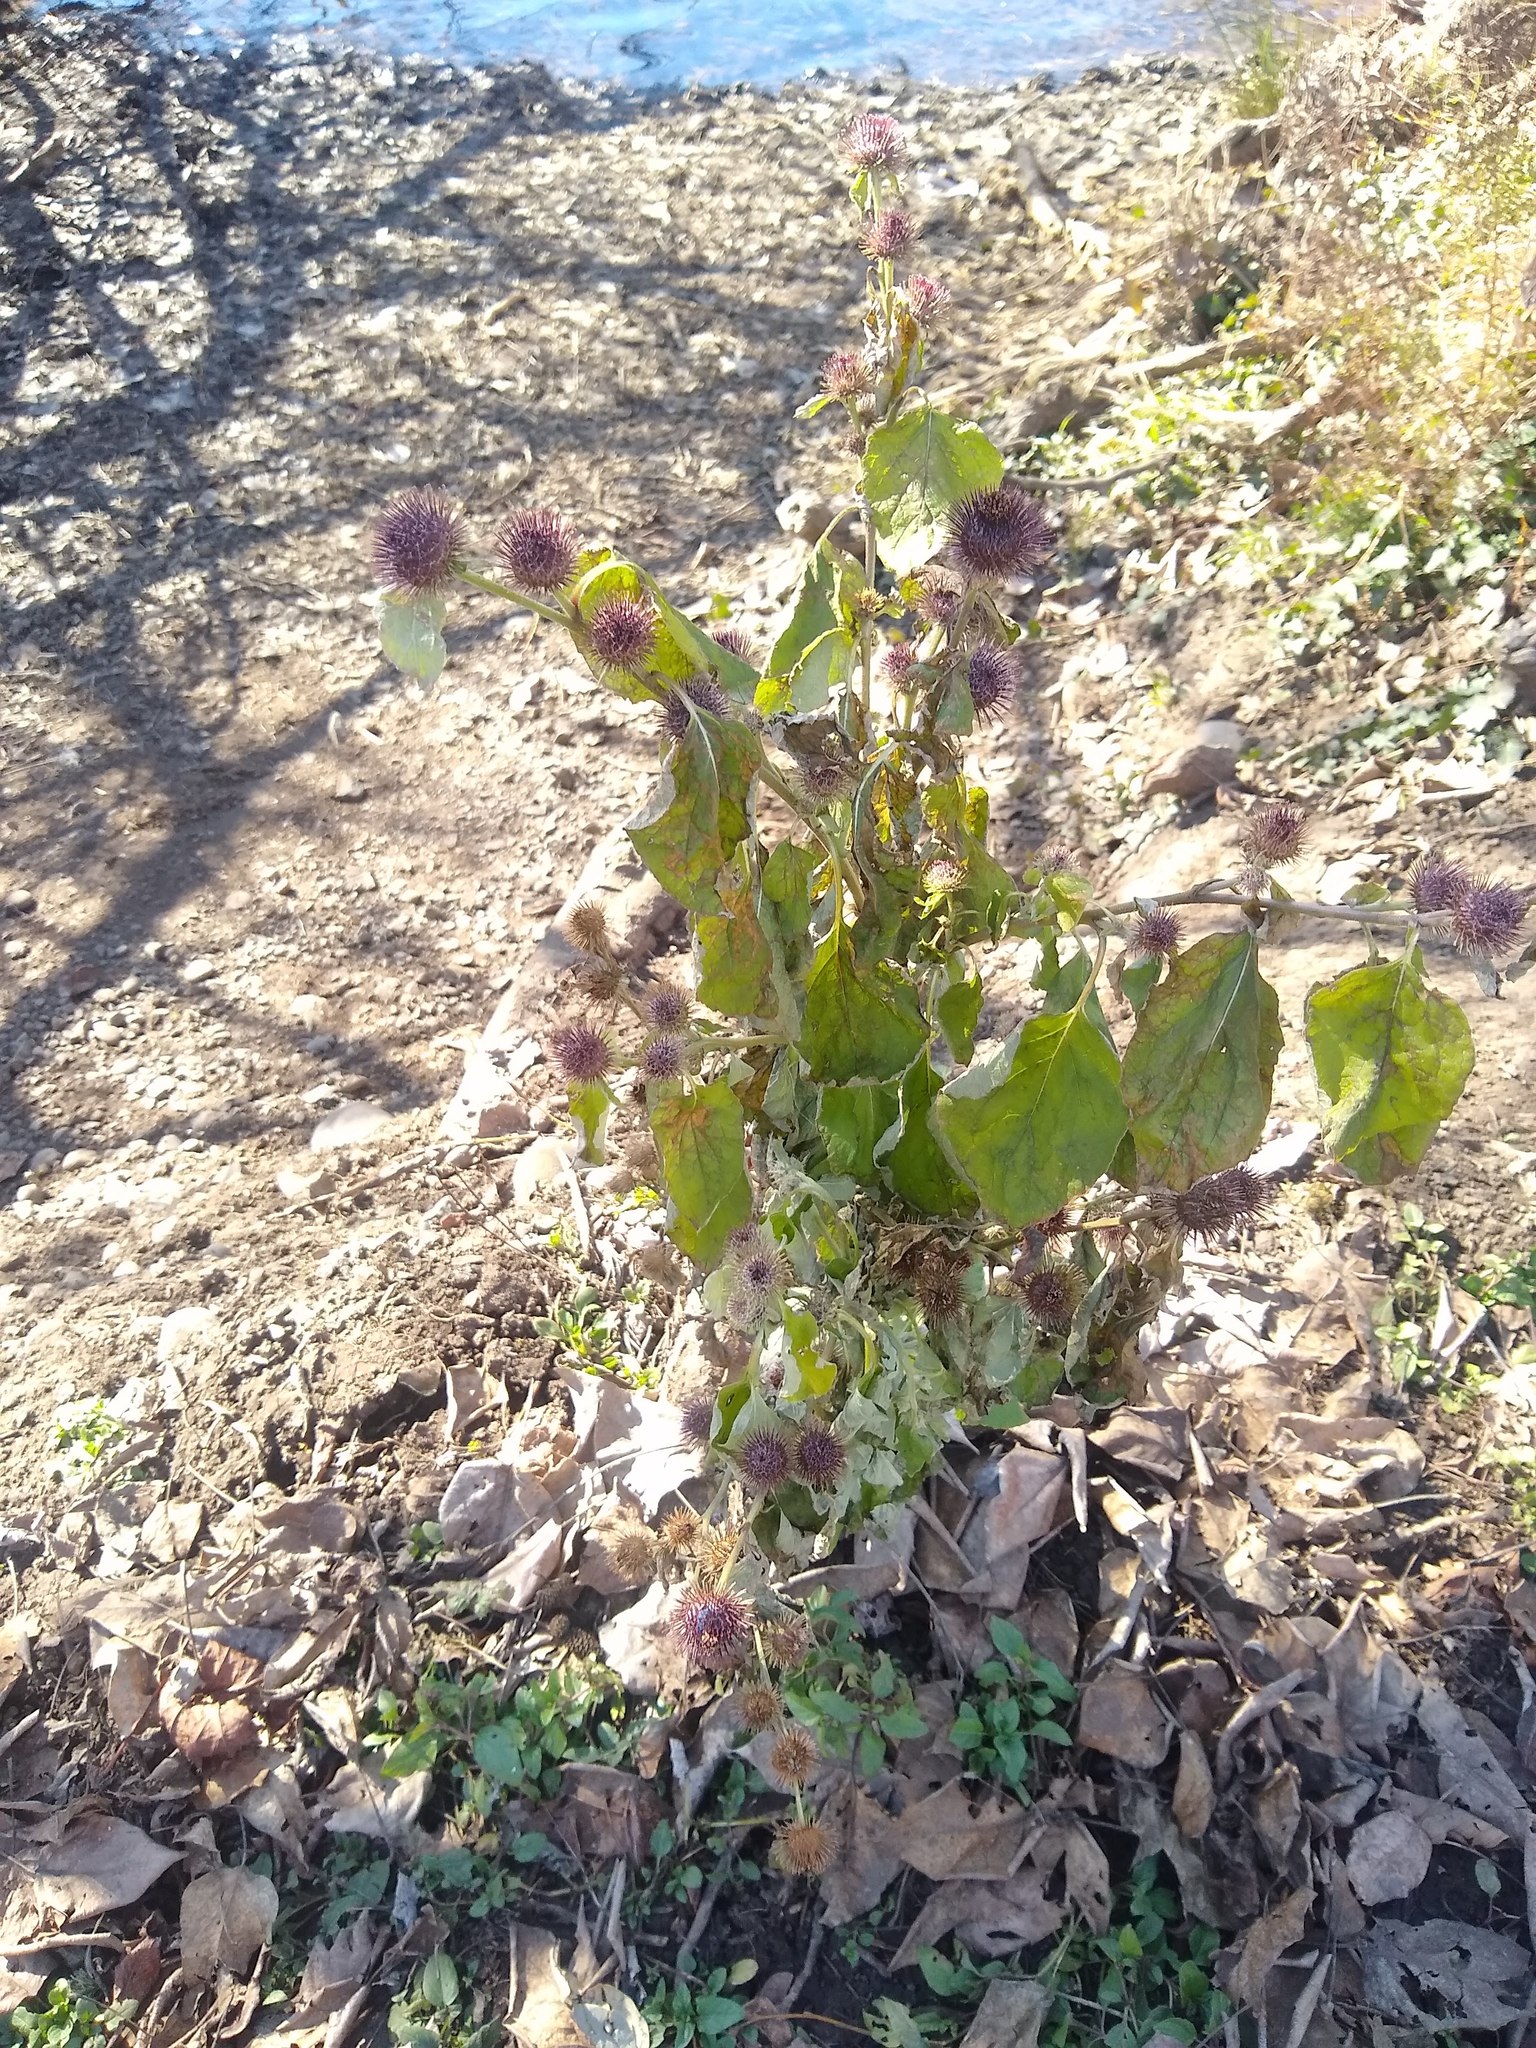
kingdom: Plantae
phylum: Tracheophyta
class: Magnoliopsida
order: Asterales
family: Asteraceae
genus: Arctium
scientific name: Arctium minus
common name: Lesser burdock
